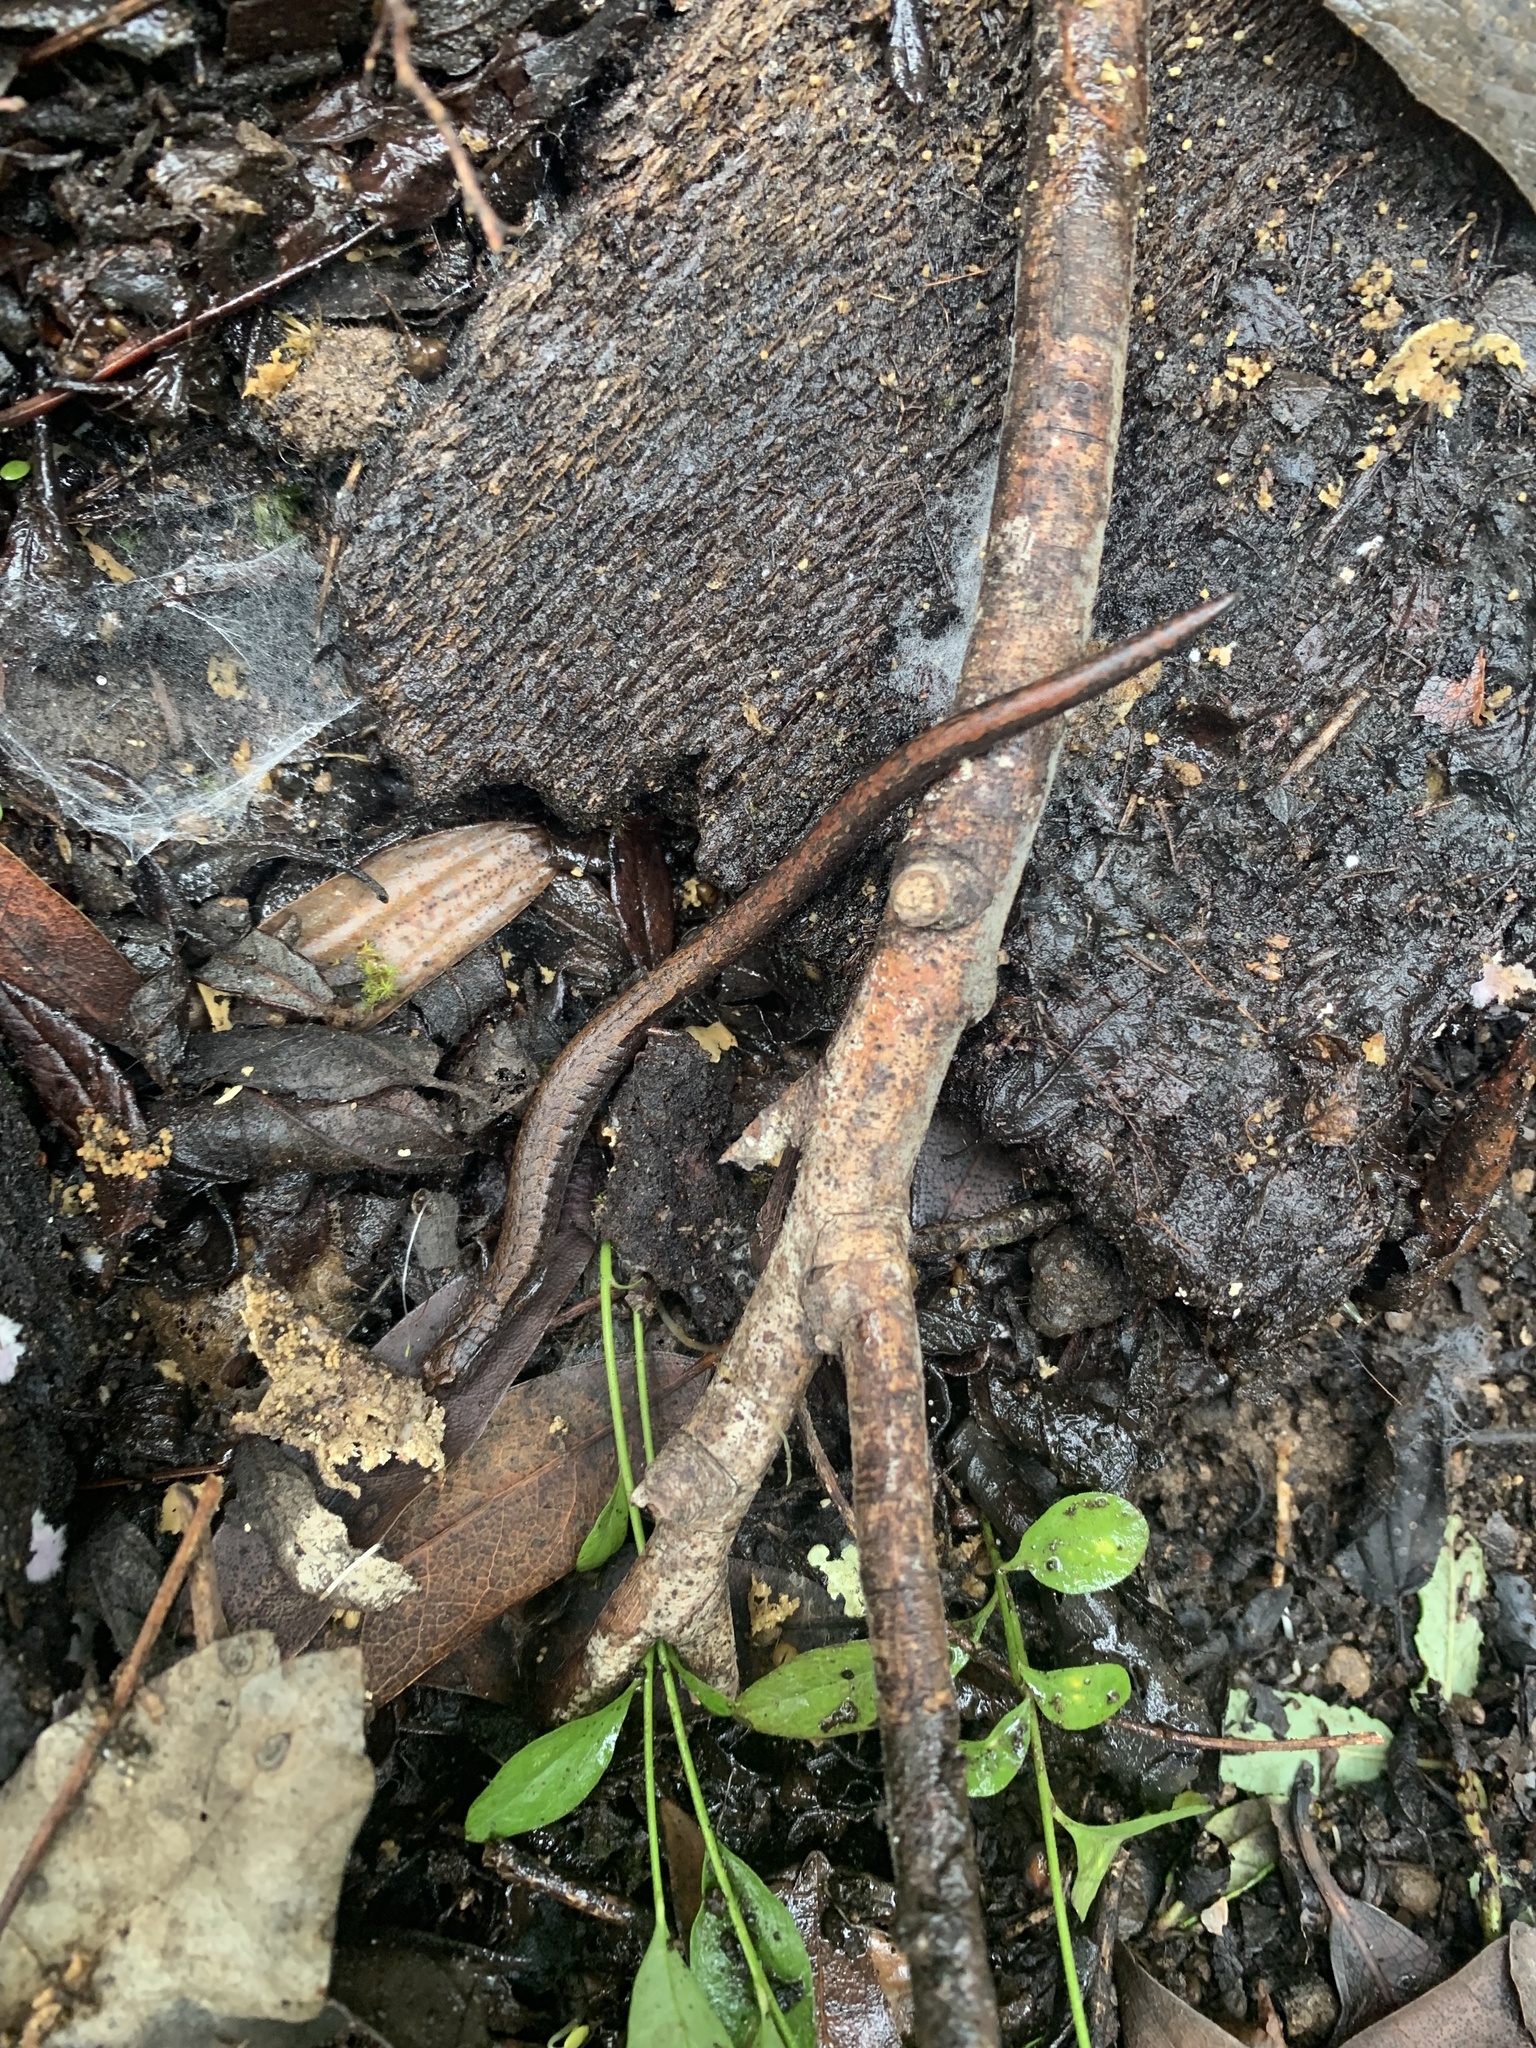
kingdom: Animalia
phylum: Chordata
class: Amphibia
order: Caudata
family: Plethodontidae
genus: Batrachoseps
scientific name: Batrachoseps attenuatus
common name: California slender salamander
